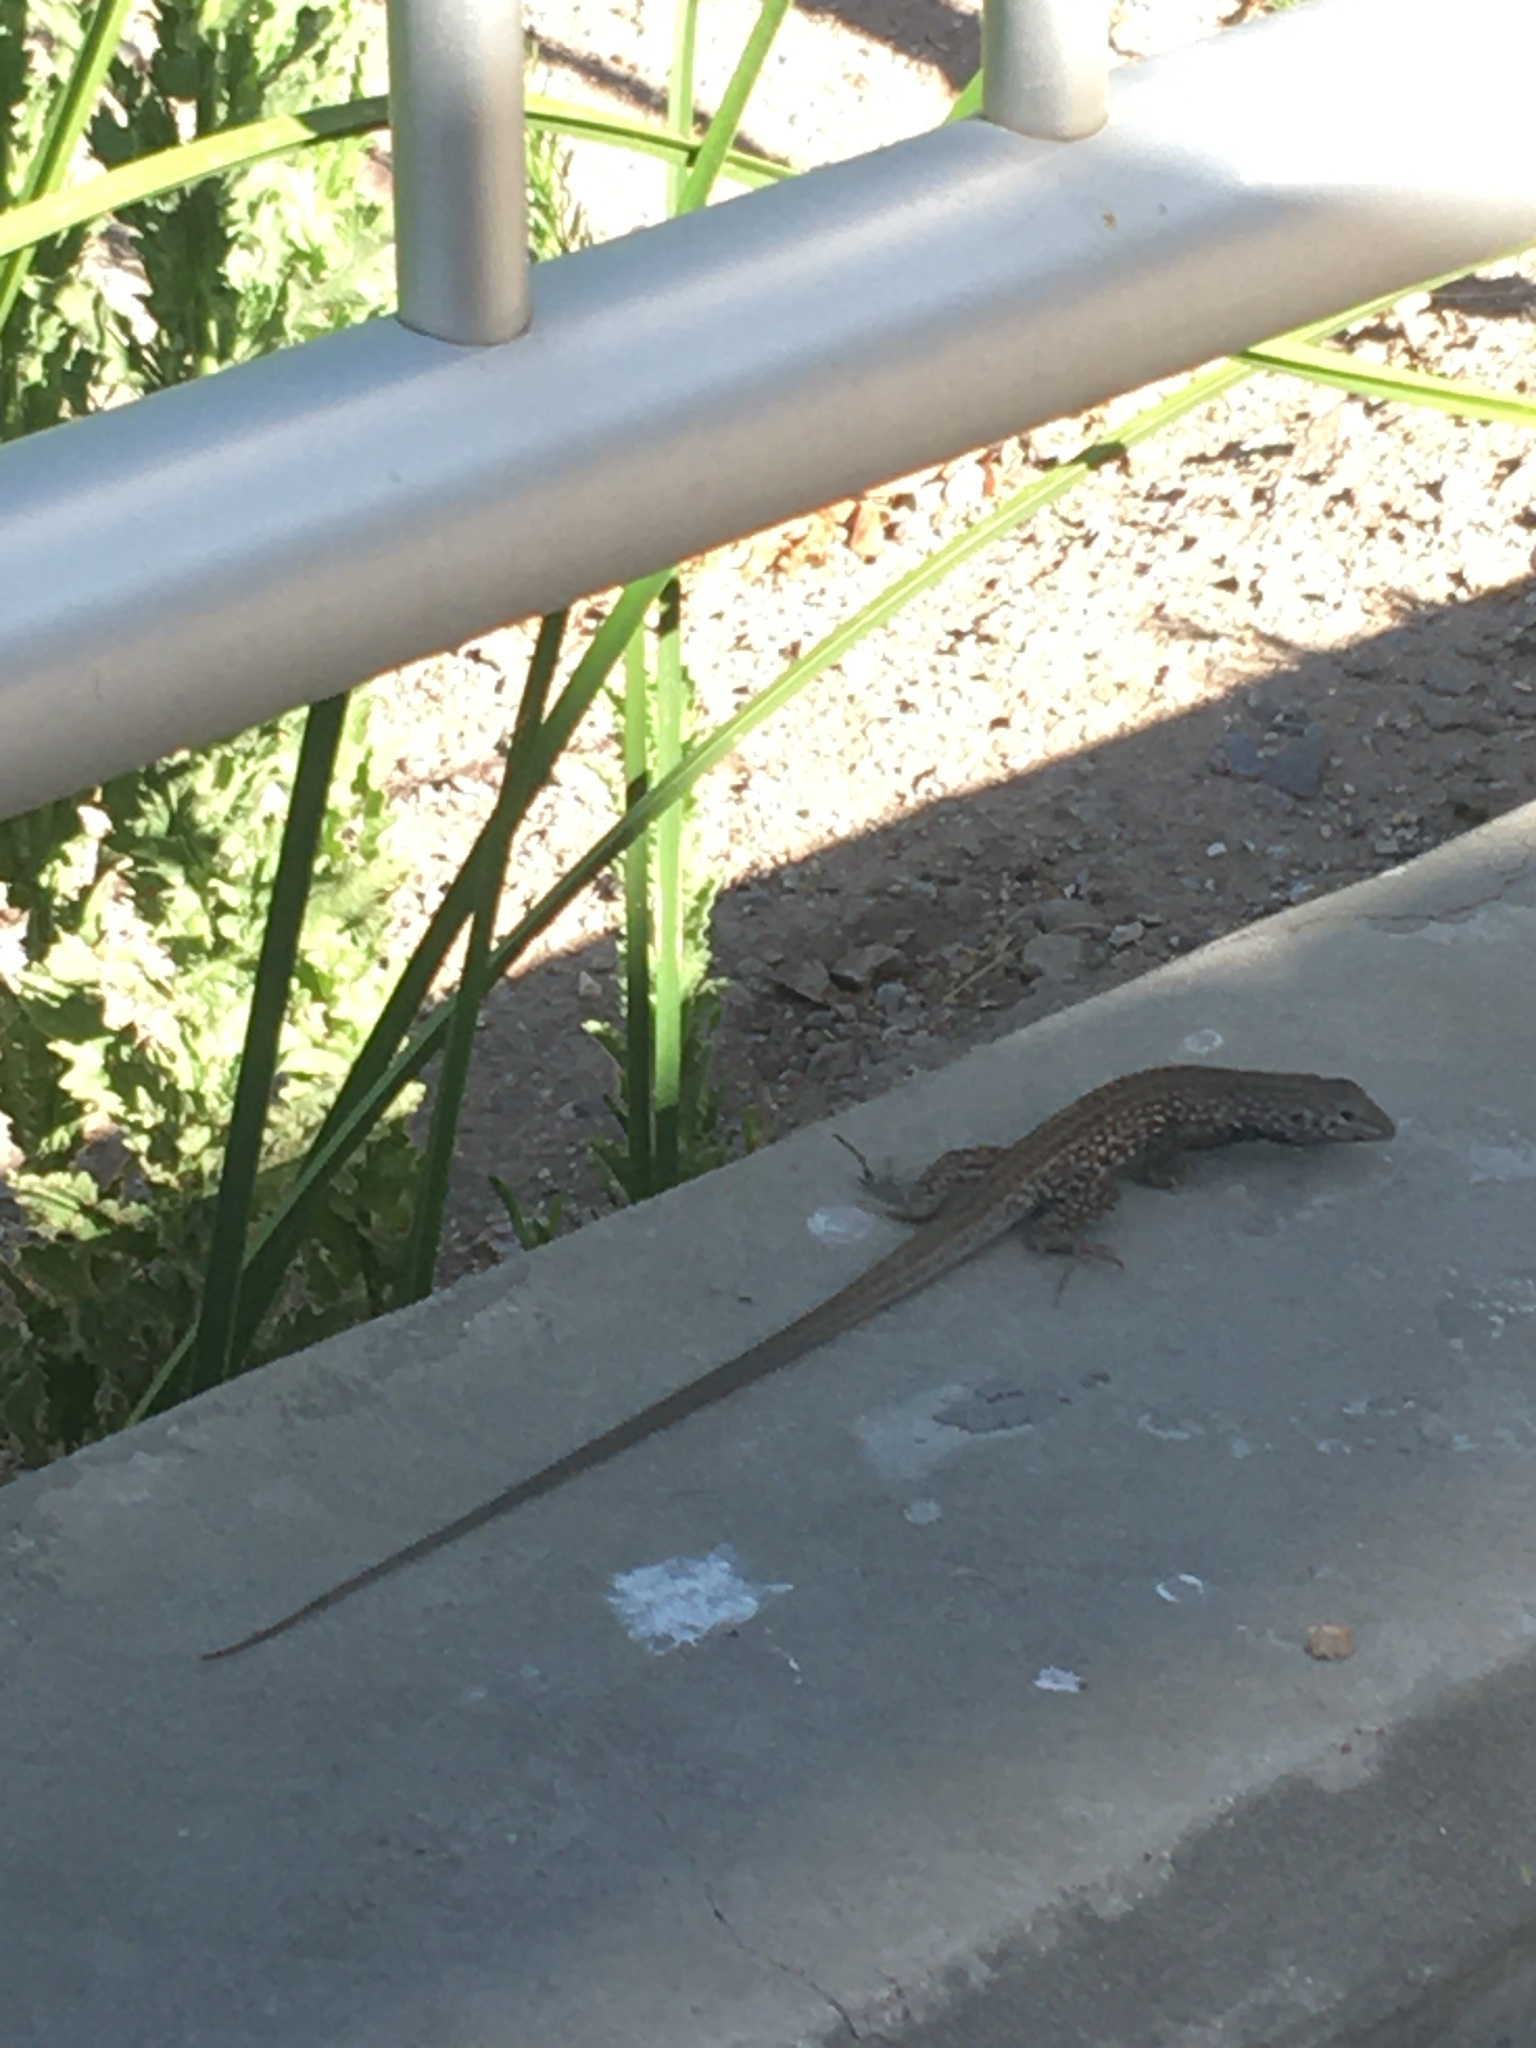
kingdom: Animalia
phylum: Chordata
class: Squamata
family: Teiidae
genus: Aspidoscelis
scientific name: Aspidoscelis tigris
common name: Tiger whiptail
